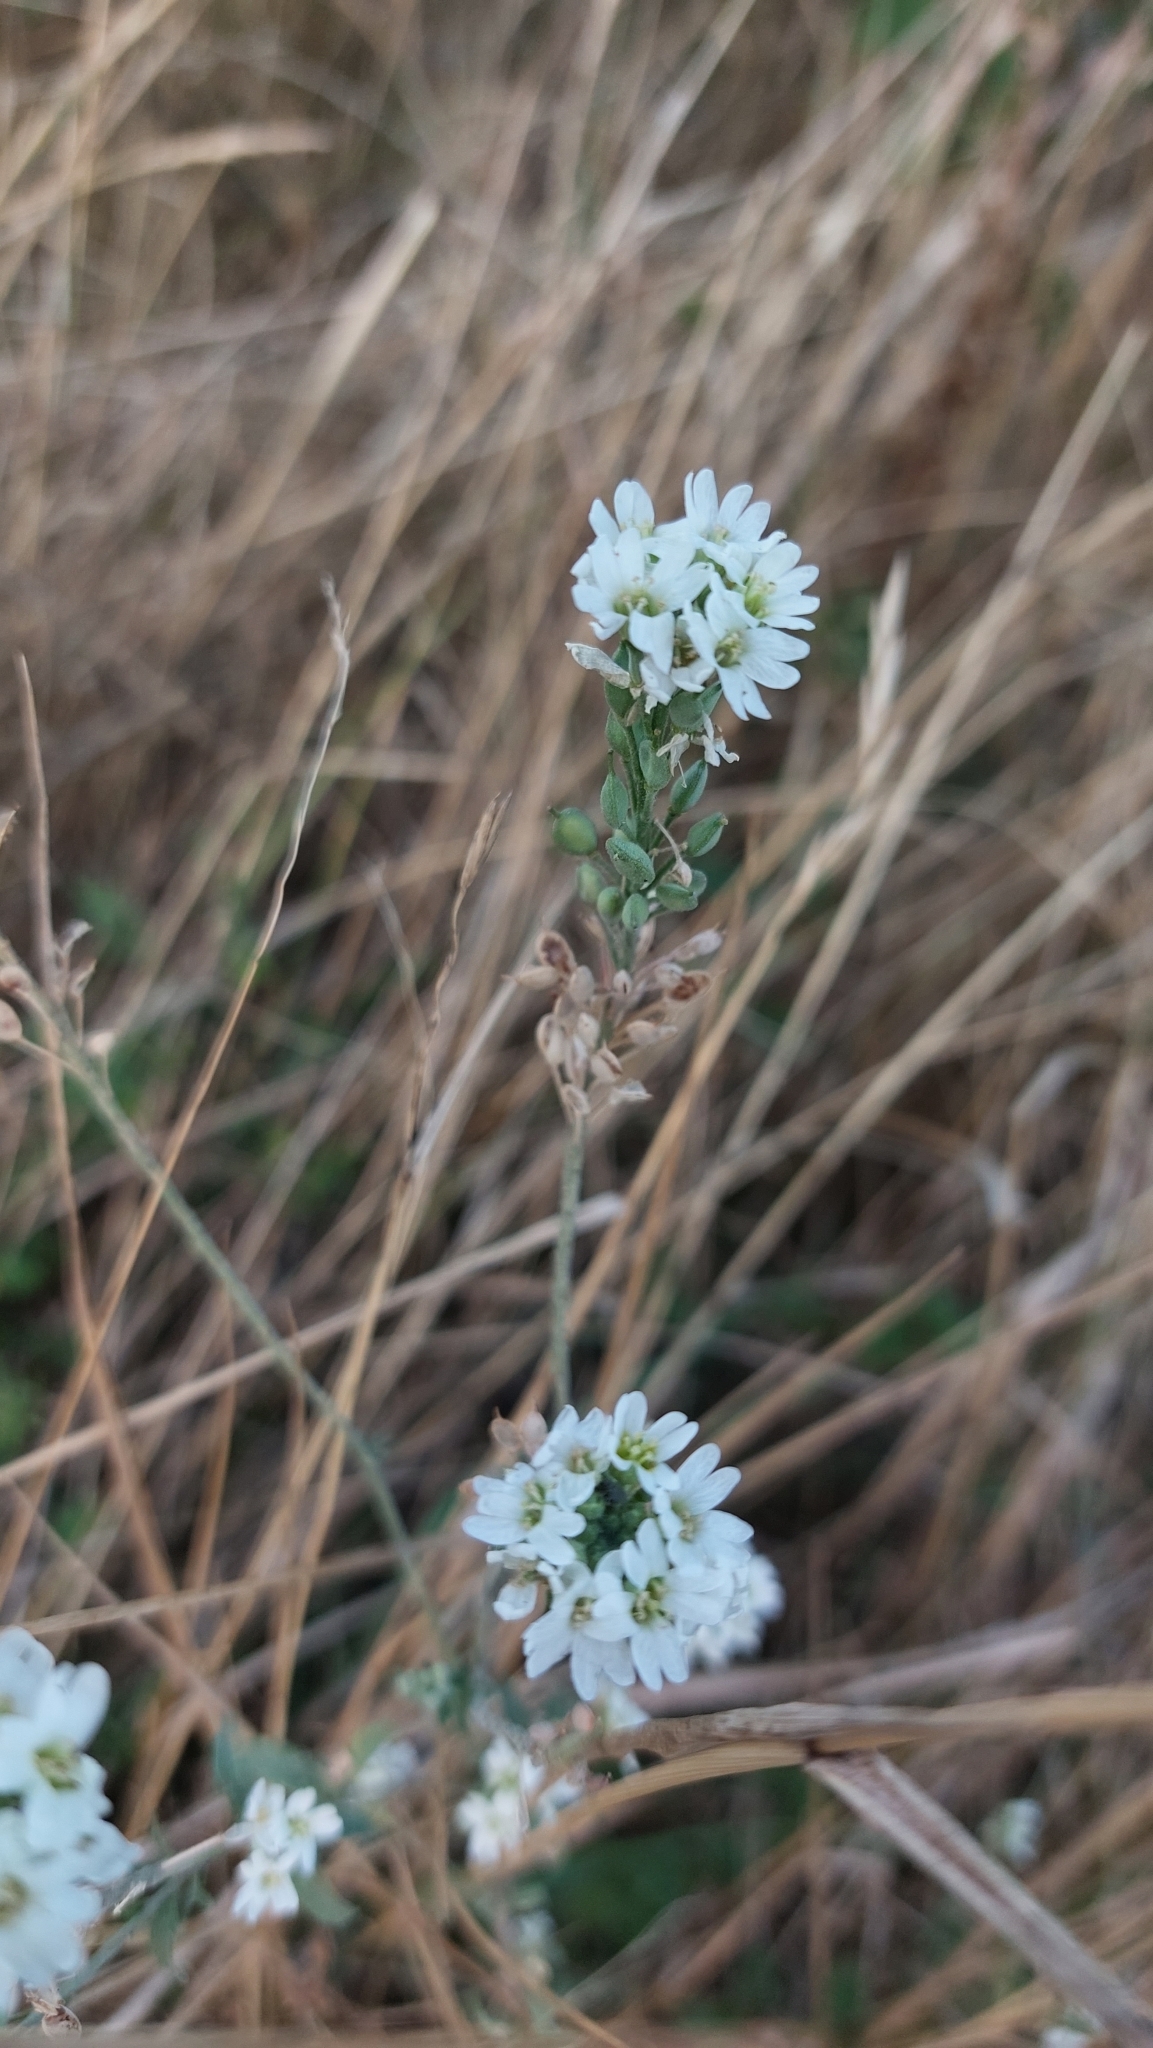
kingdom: Plantae
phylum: Tracheophyta
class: Magnoliopsida
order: Brassicales
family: Brassicaceae
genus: Berteroa
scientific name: Berteroa incana
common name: Hoary alison
